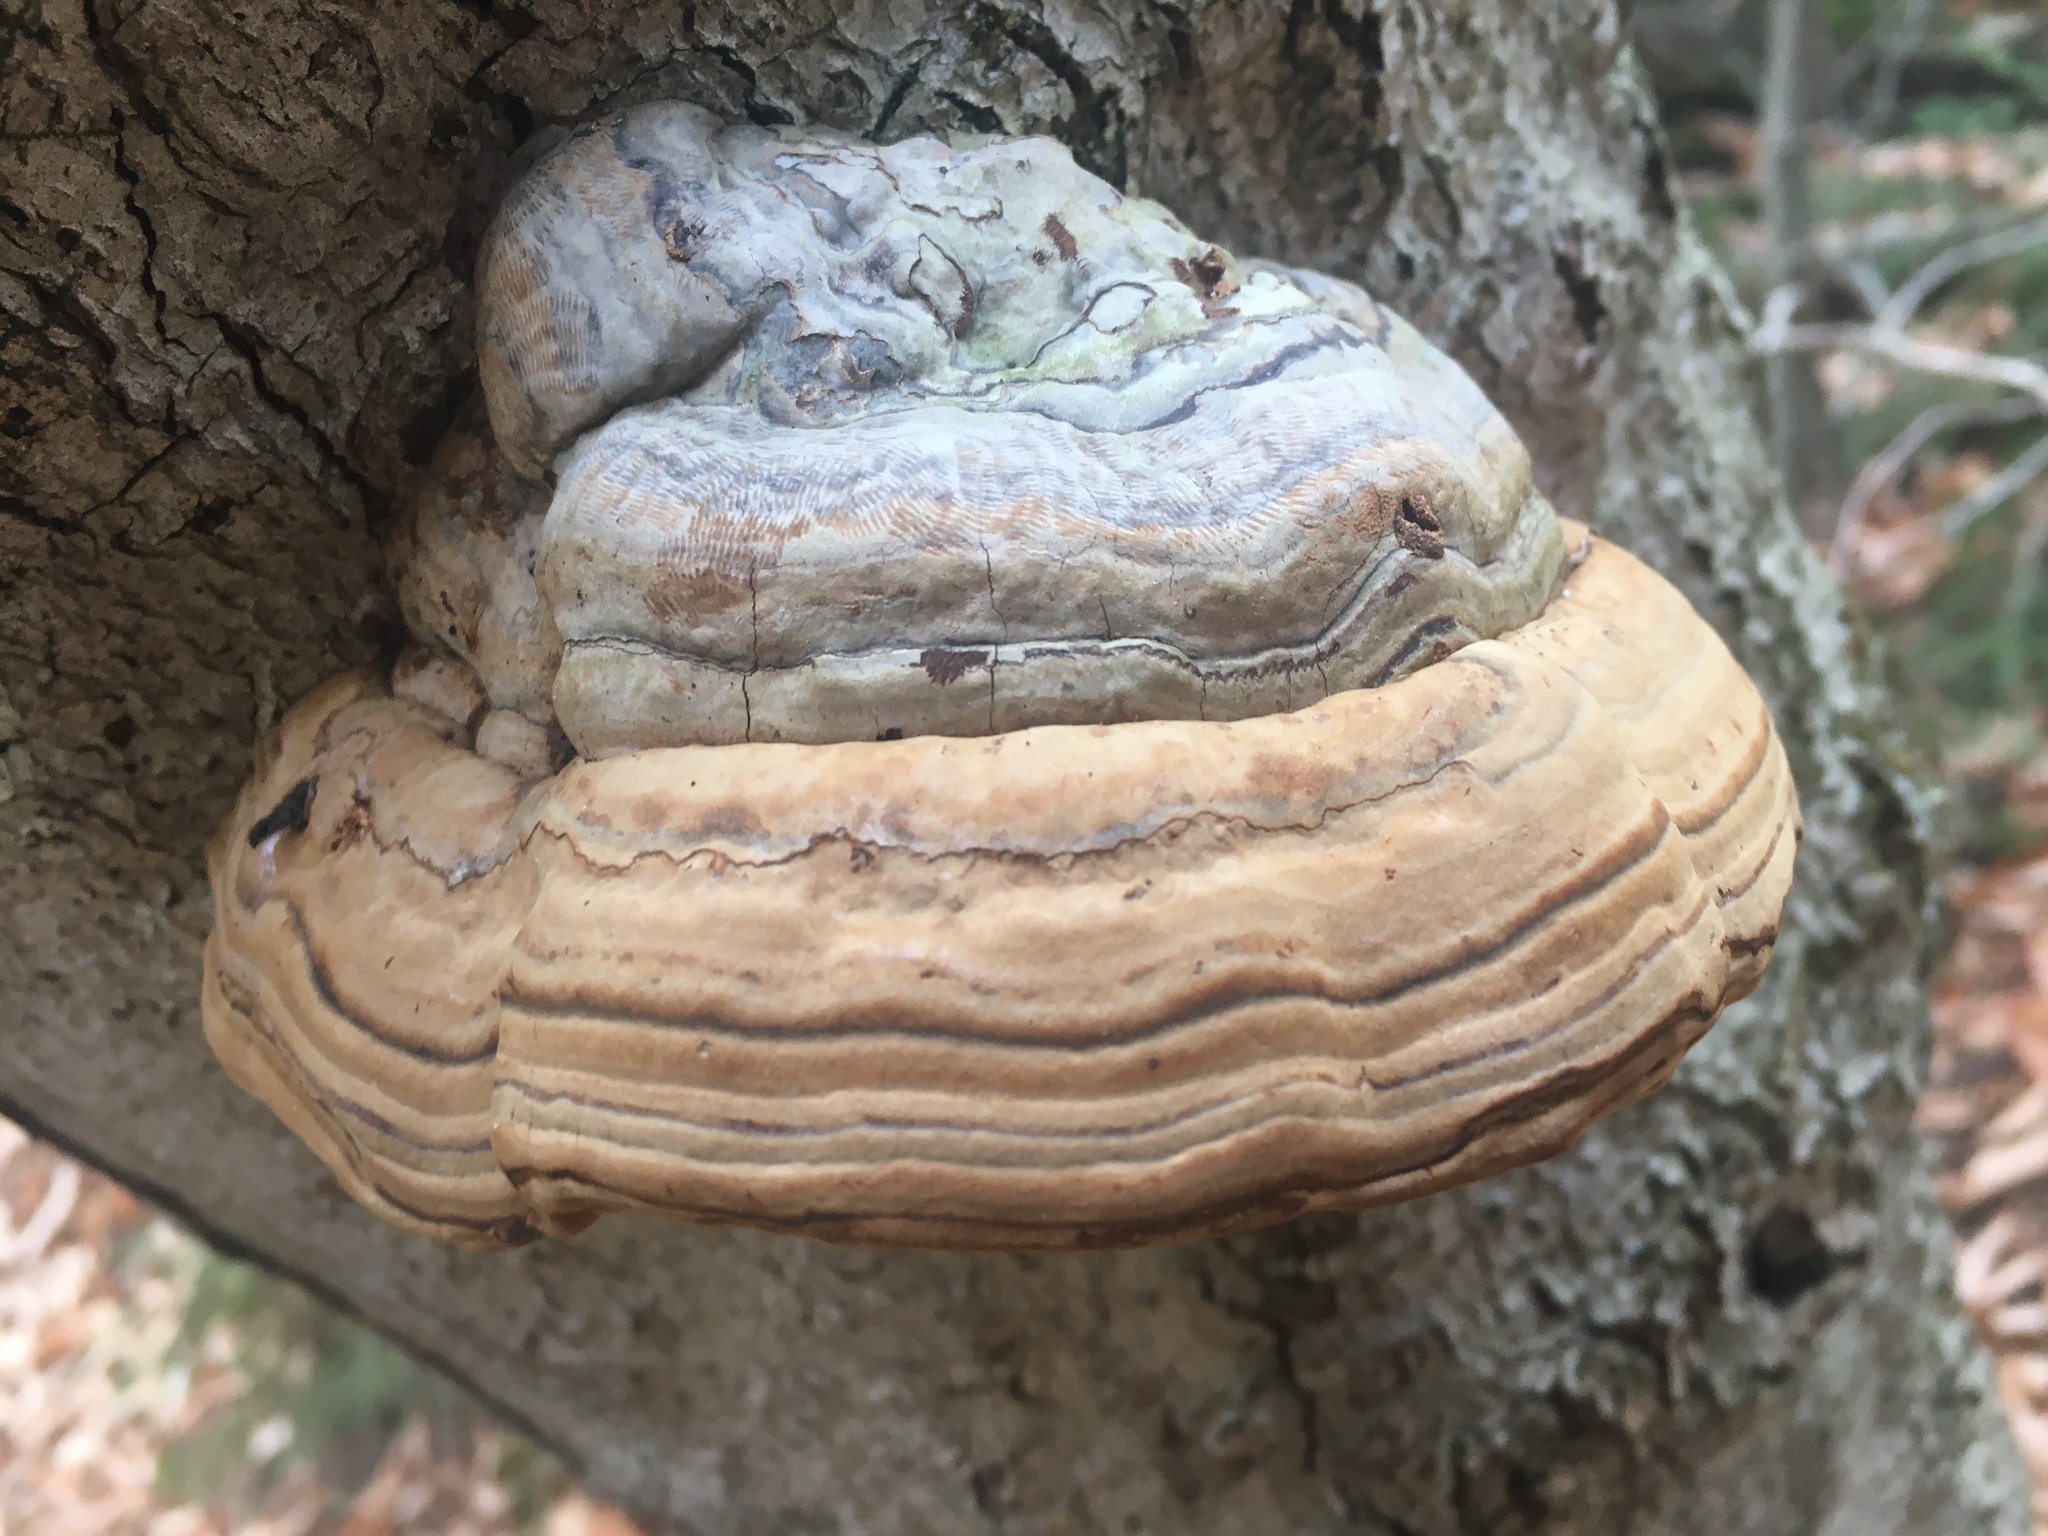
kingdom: Fungi
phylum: Basidiomycota
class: Agaricomycetes
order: Polyporales
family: Polyporaceae
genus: Fomes
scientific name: Fomes fomentarius
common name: Hoof fungus
